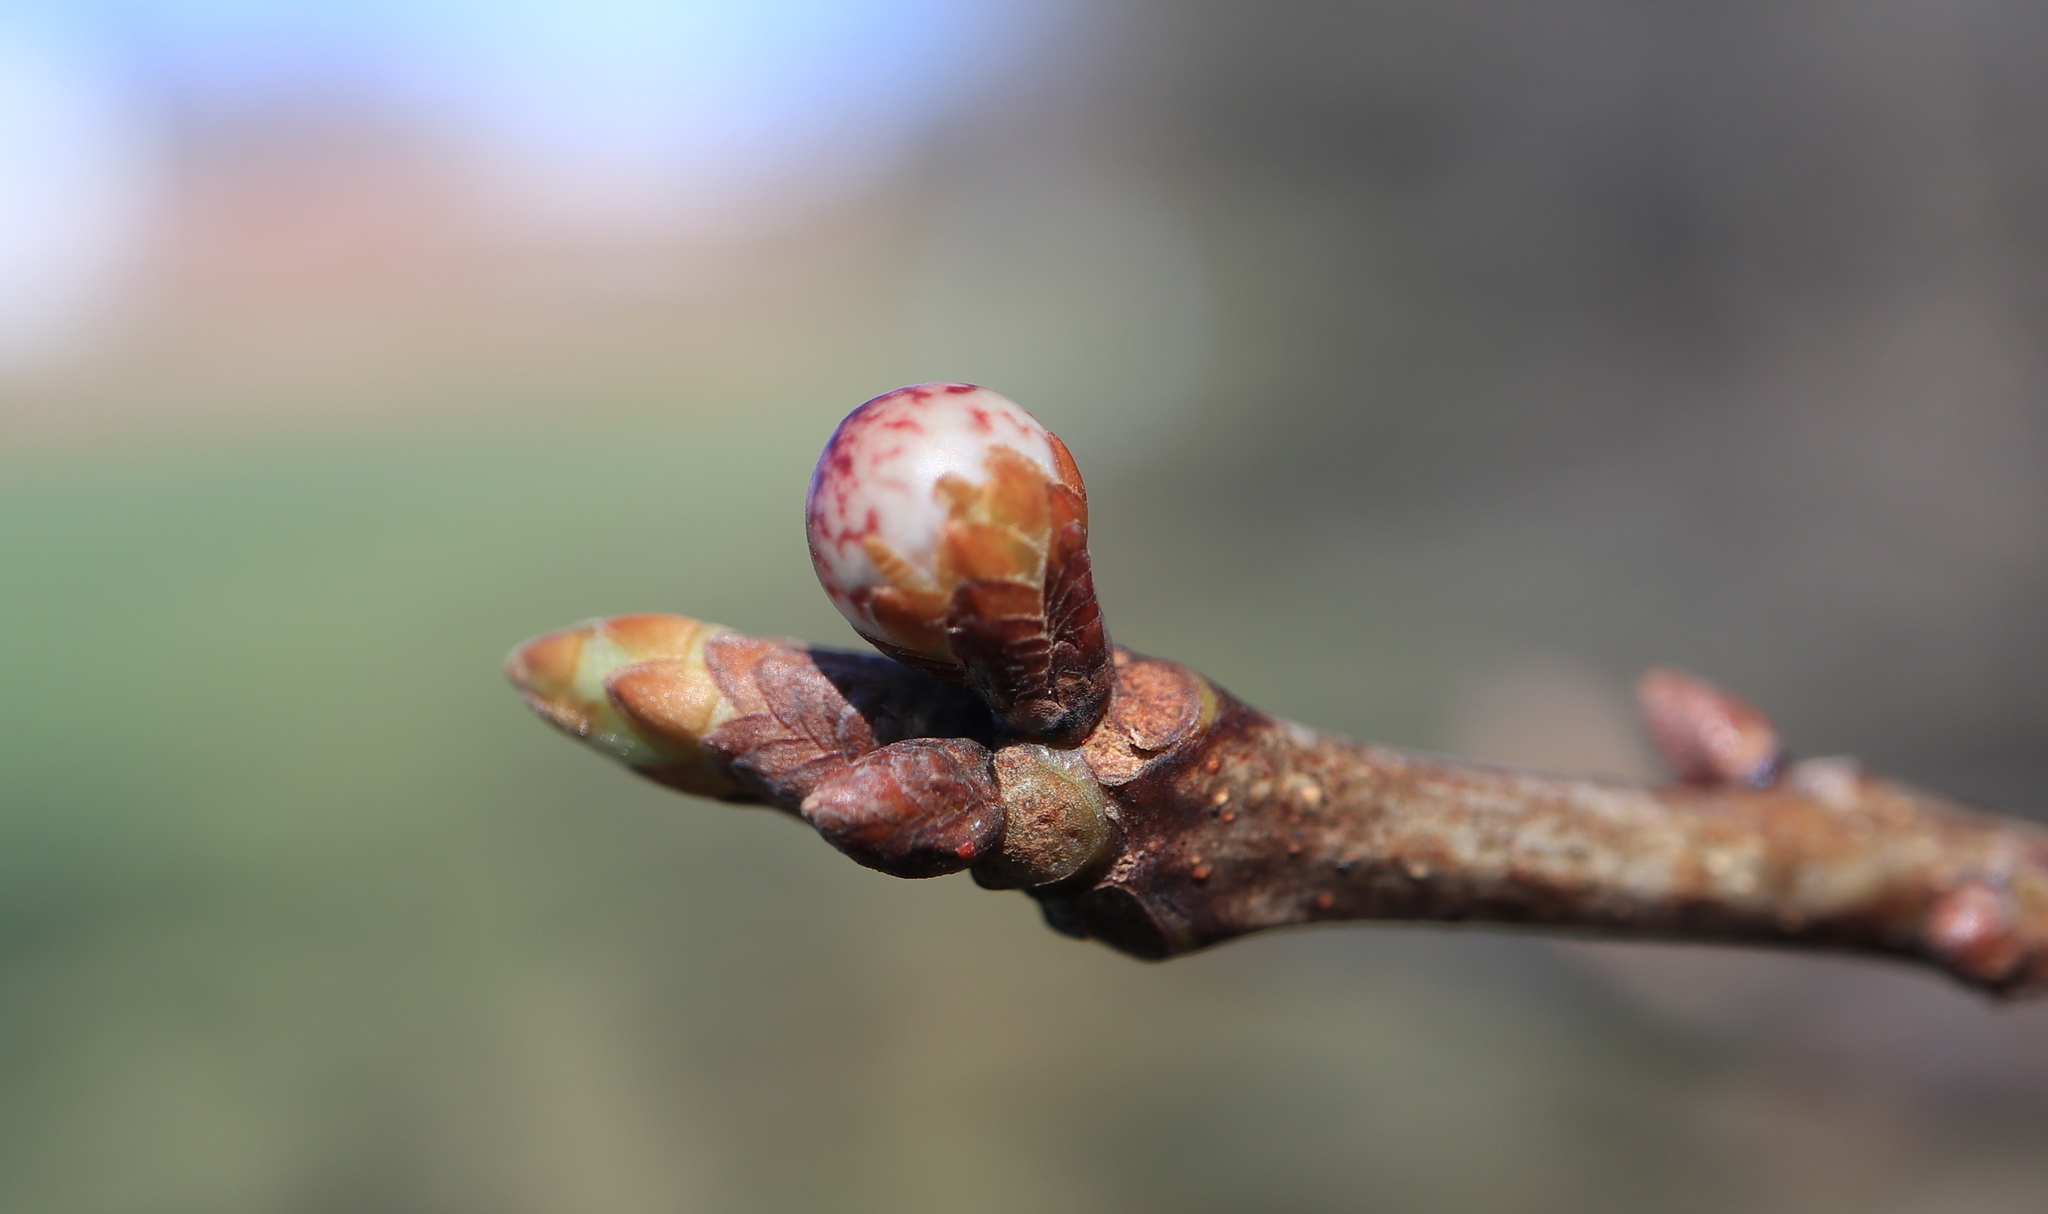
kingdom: Animalia
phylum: Arthropoda
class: Insecta
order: Hymenoptera
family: Cynipidae
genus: Andricus
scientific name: Andricus
